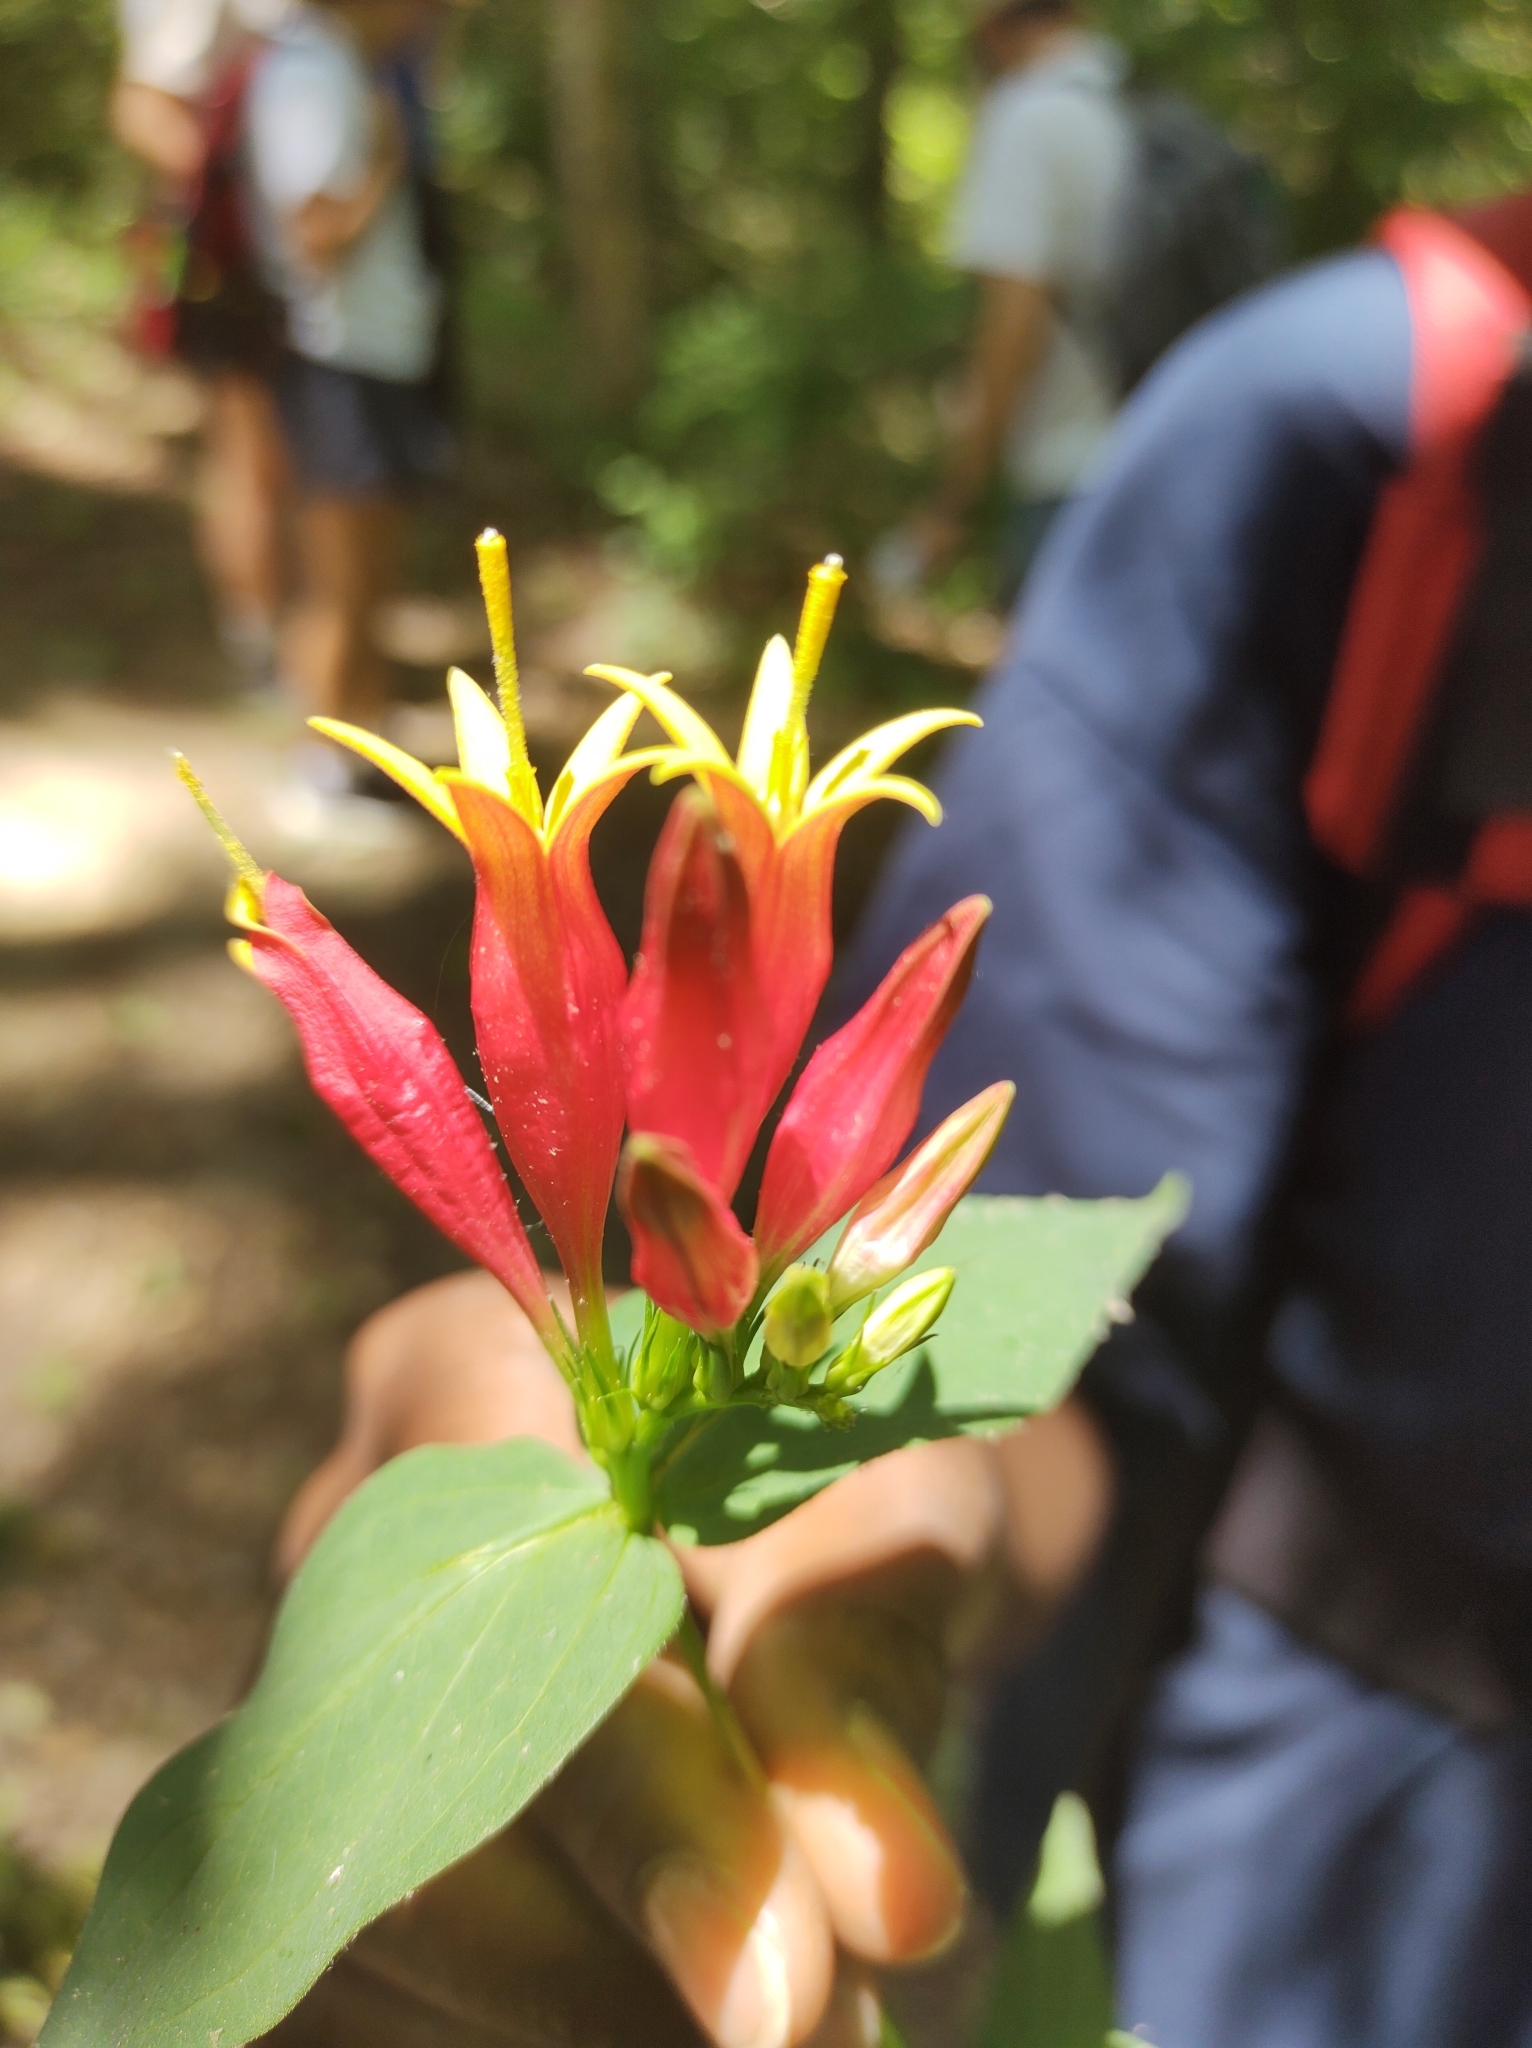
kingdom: Plantae
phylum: Tracheophyta
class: Magnoliopsida
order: Gentianales
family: Loganiaceae
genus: Spigelia
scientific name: Spigelia marilandica
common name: Indian-pink
